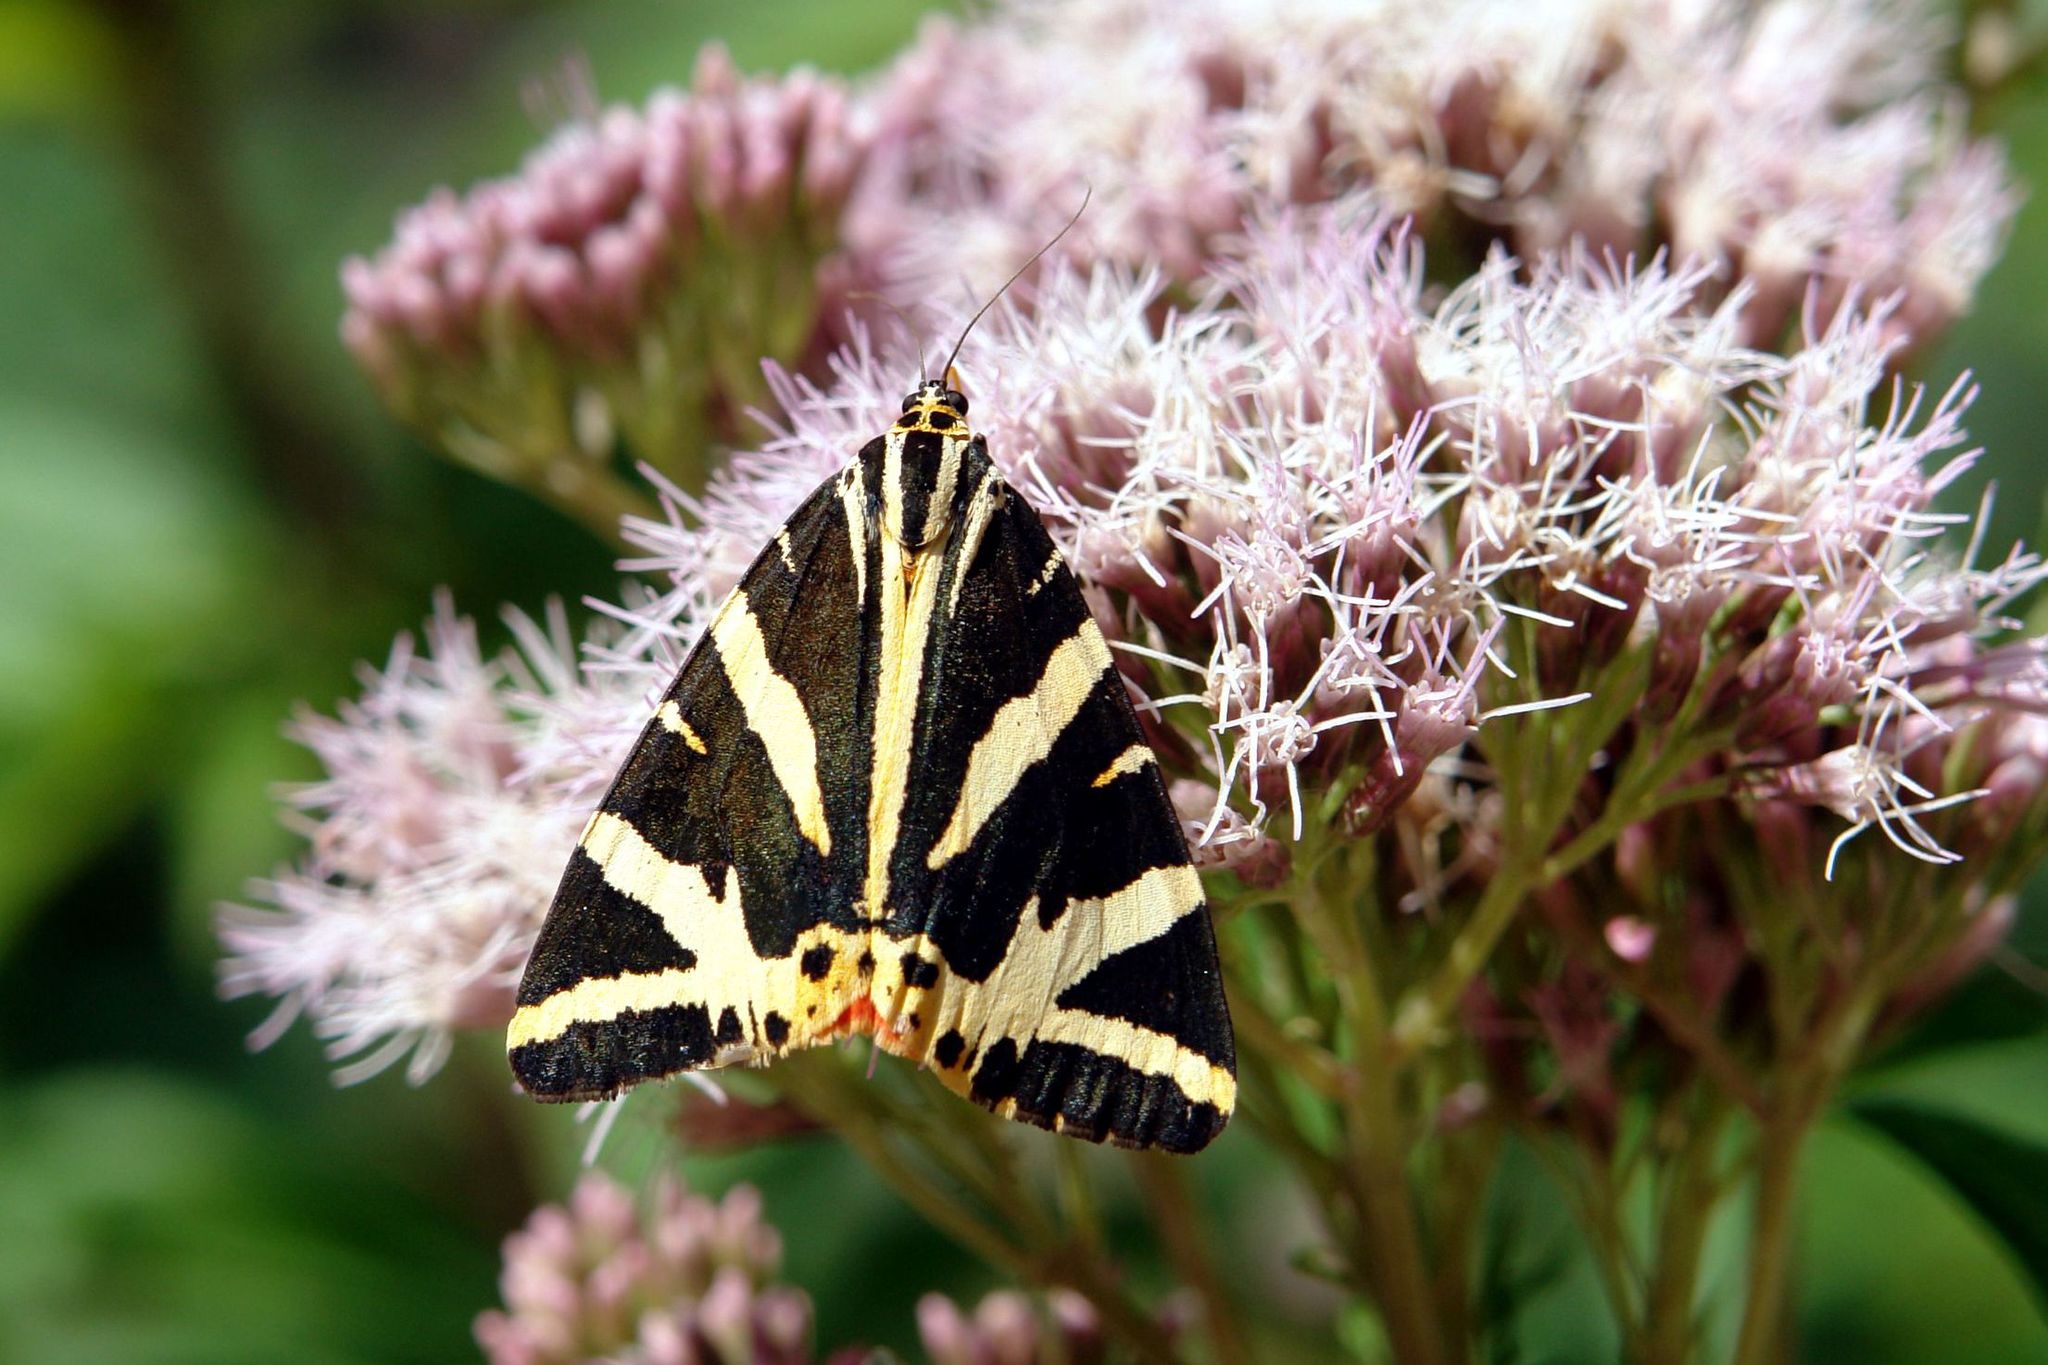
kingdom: Animalia
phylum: Arthropoda
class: Insecta
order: Lepidoptera
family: Erebidae
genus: Euplagia
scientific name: Euplagia quadripunctaria
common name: Jersey tiger
